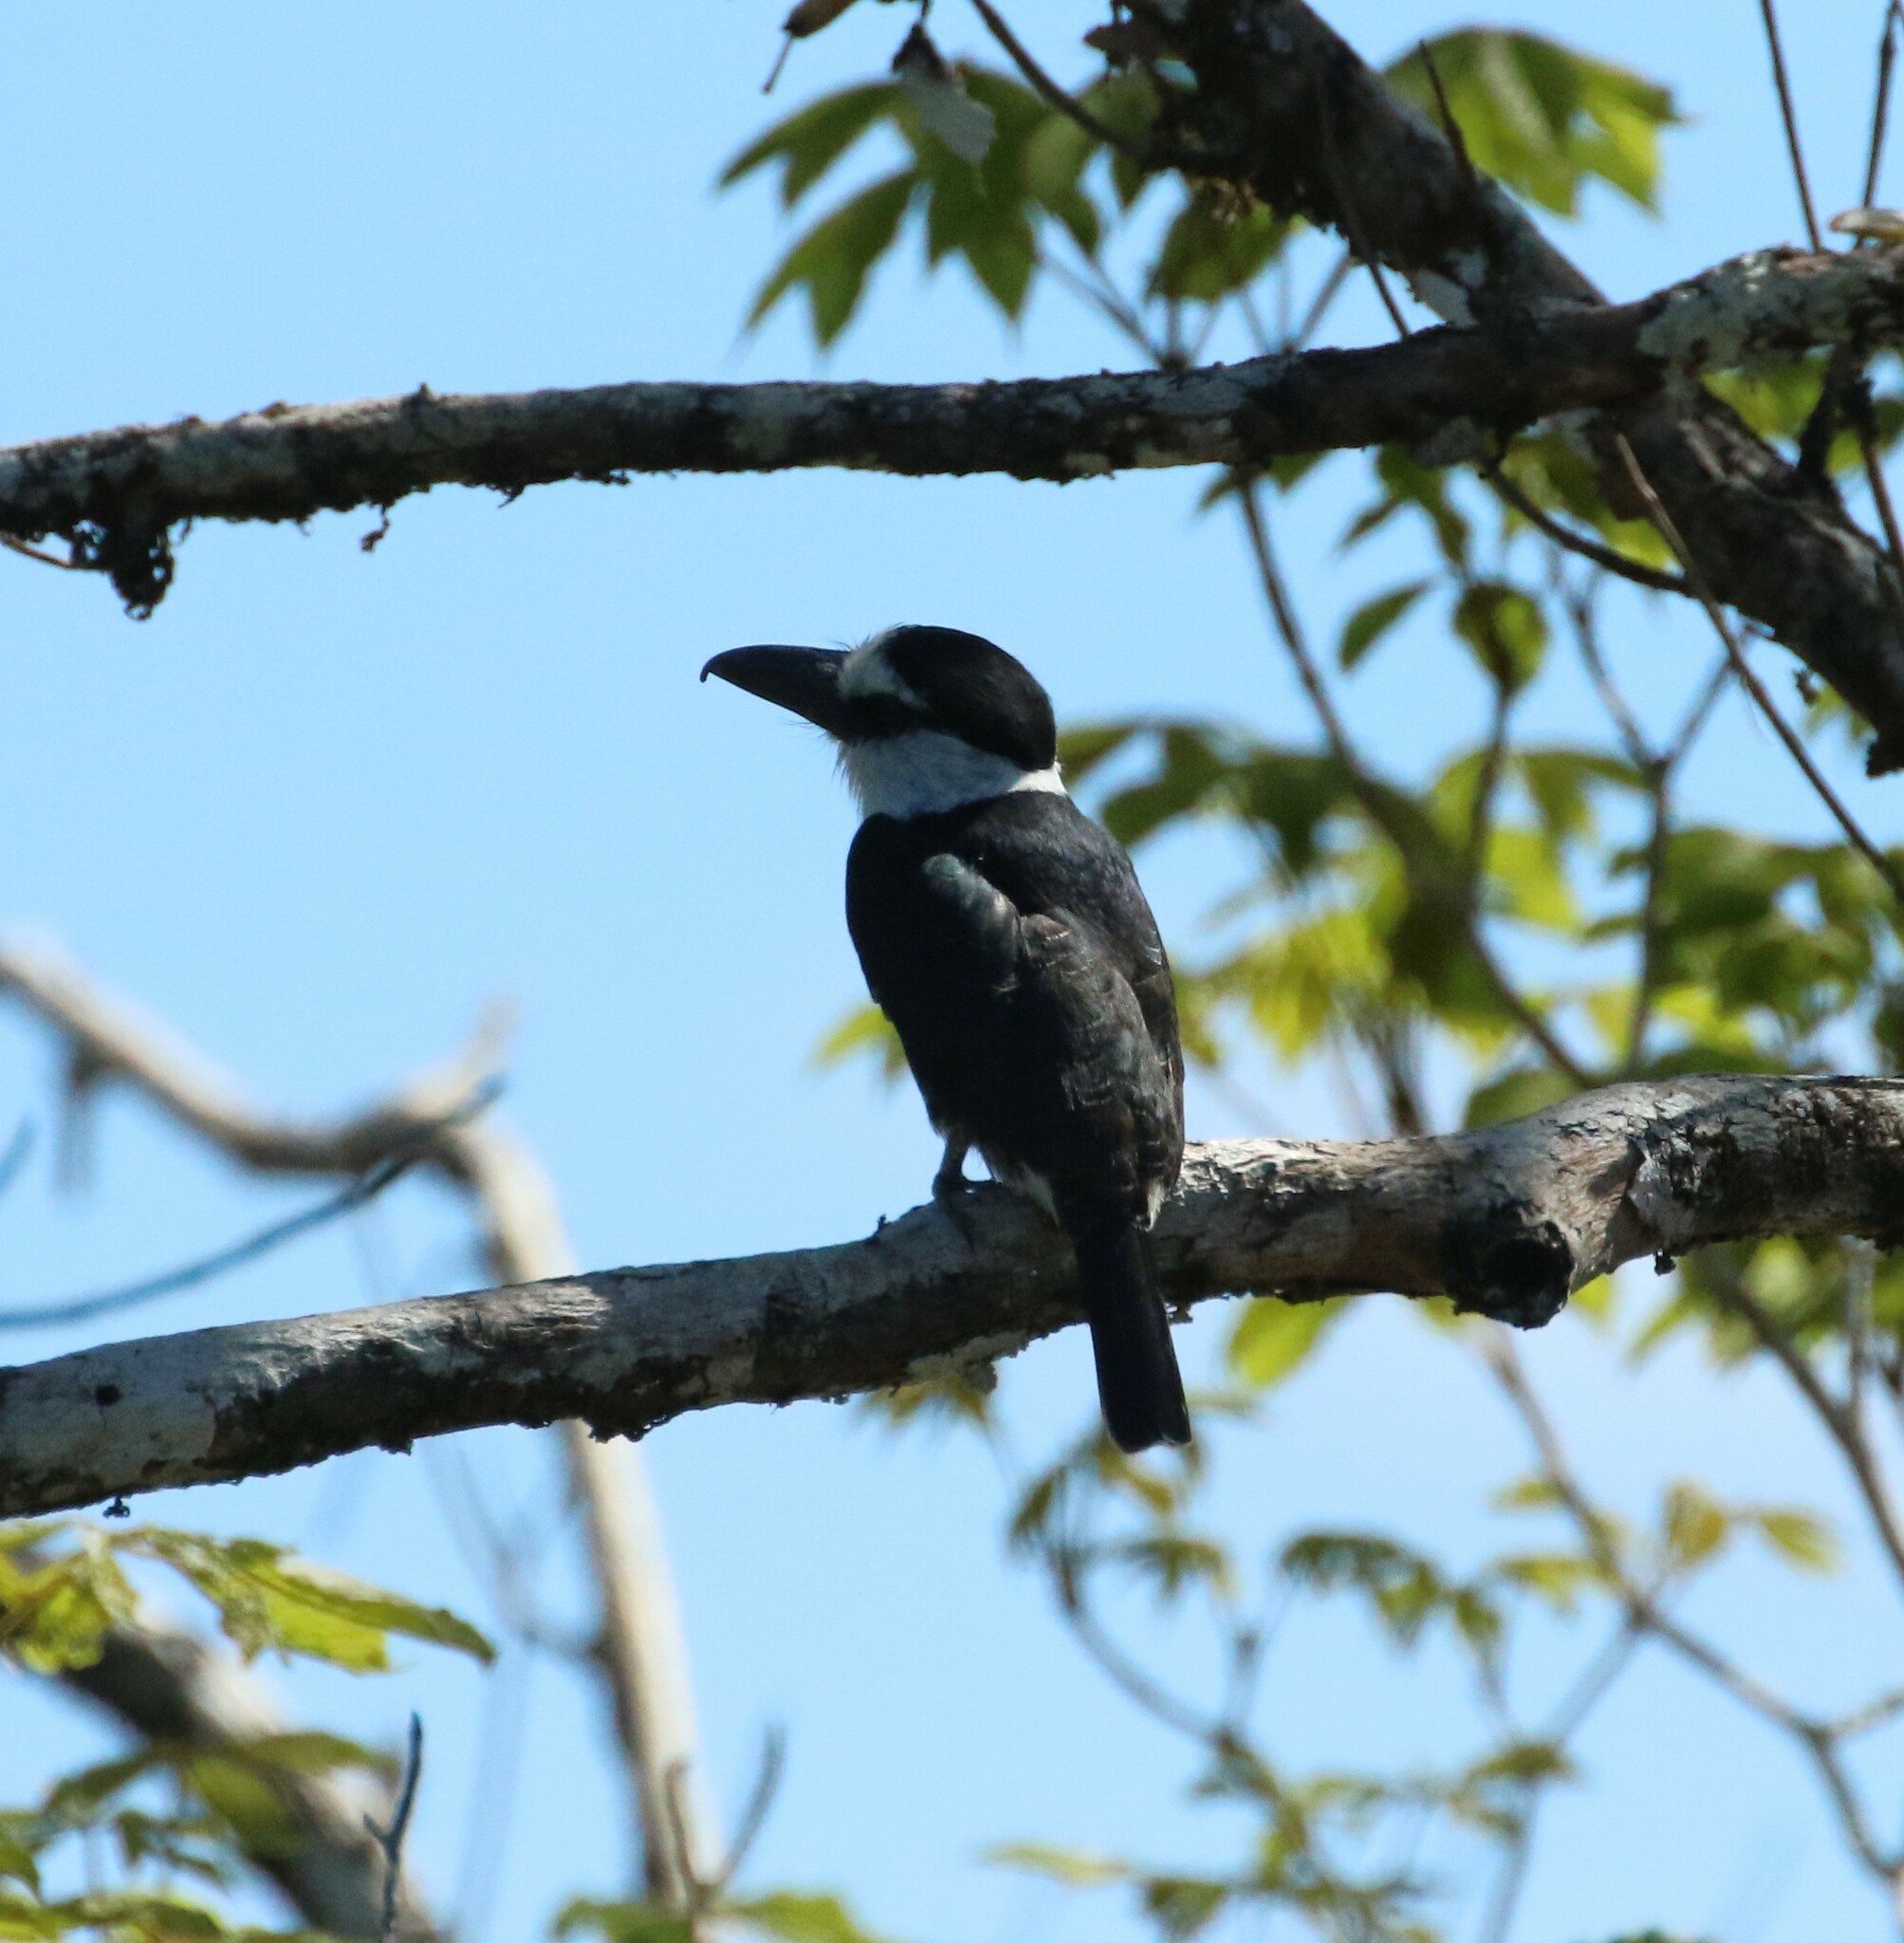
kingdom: Animalia
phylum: Chordata
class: Aves
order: Piciformes
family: Bucconidae
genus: Notharchus
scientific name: Notharchus hyperrhynchus
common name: White-necked puffbird
